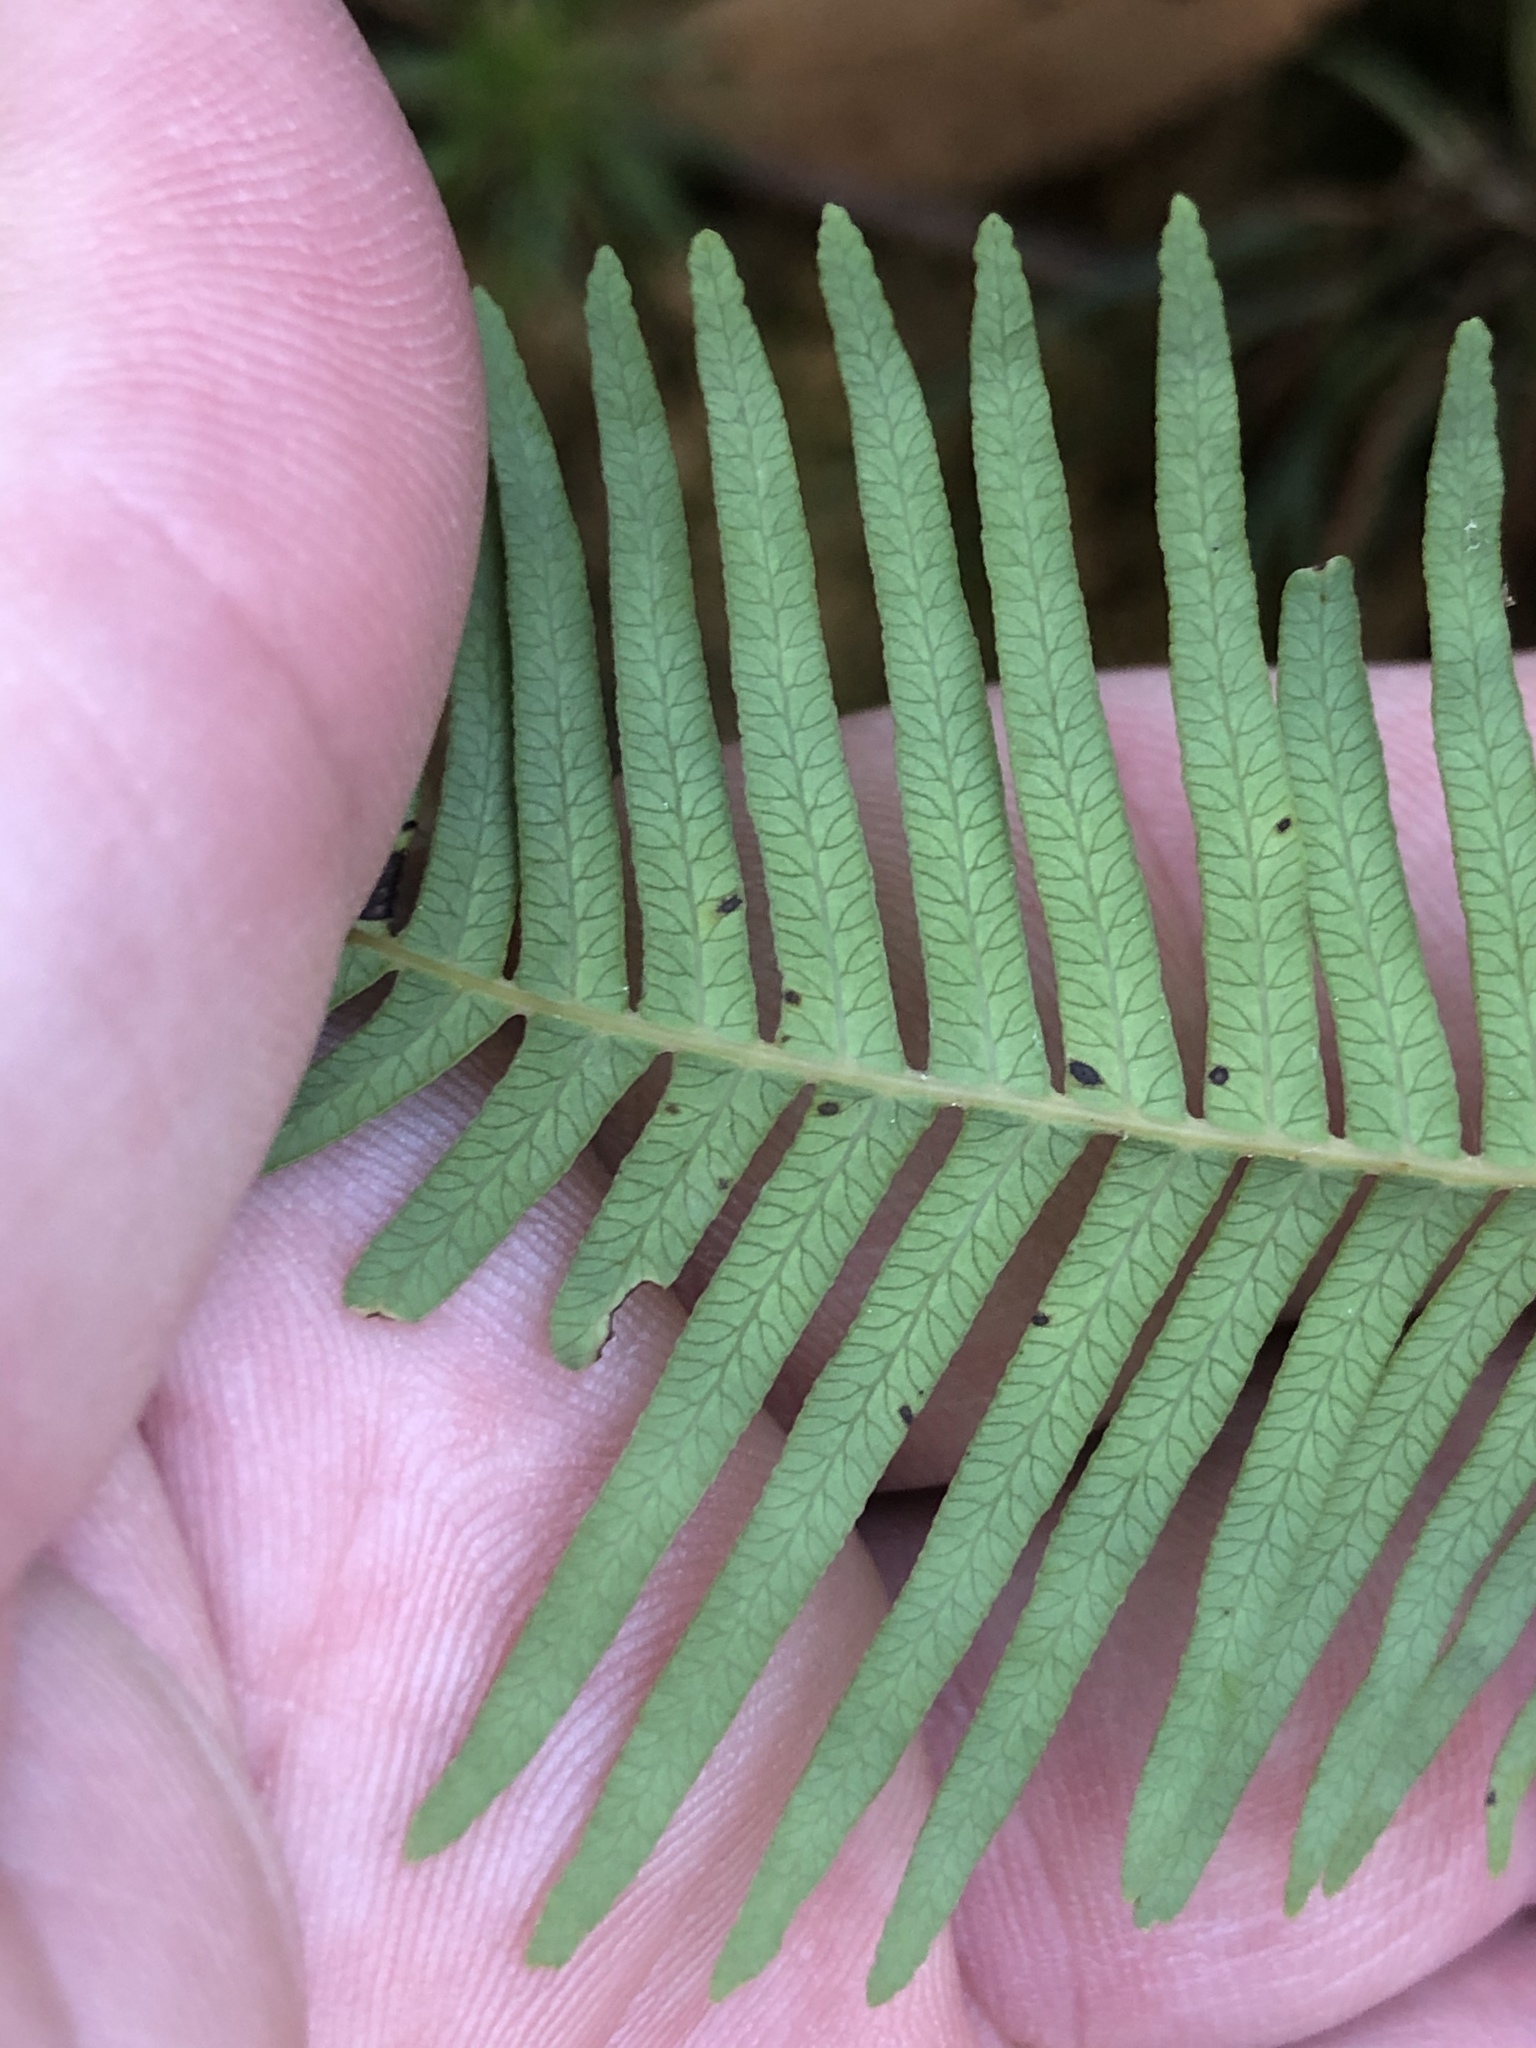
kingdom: Plantae
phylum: Tracheophyta
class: Polypodiopsida
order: Gleicheniales
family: Gleicheniaceae
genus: Sticherus
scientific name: Sticherus lobatus
